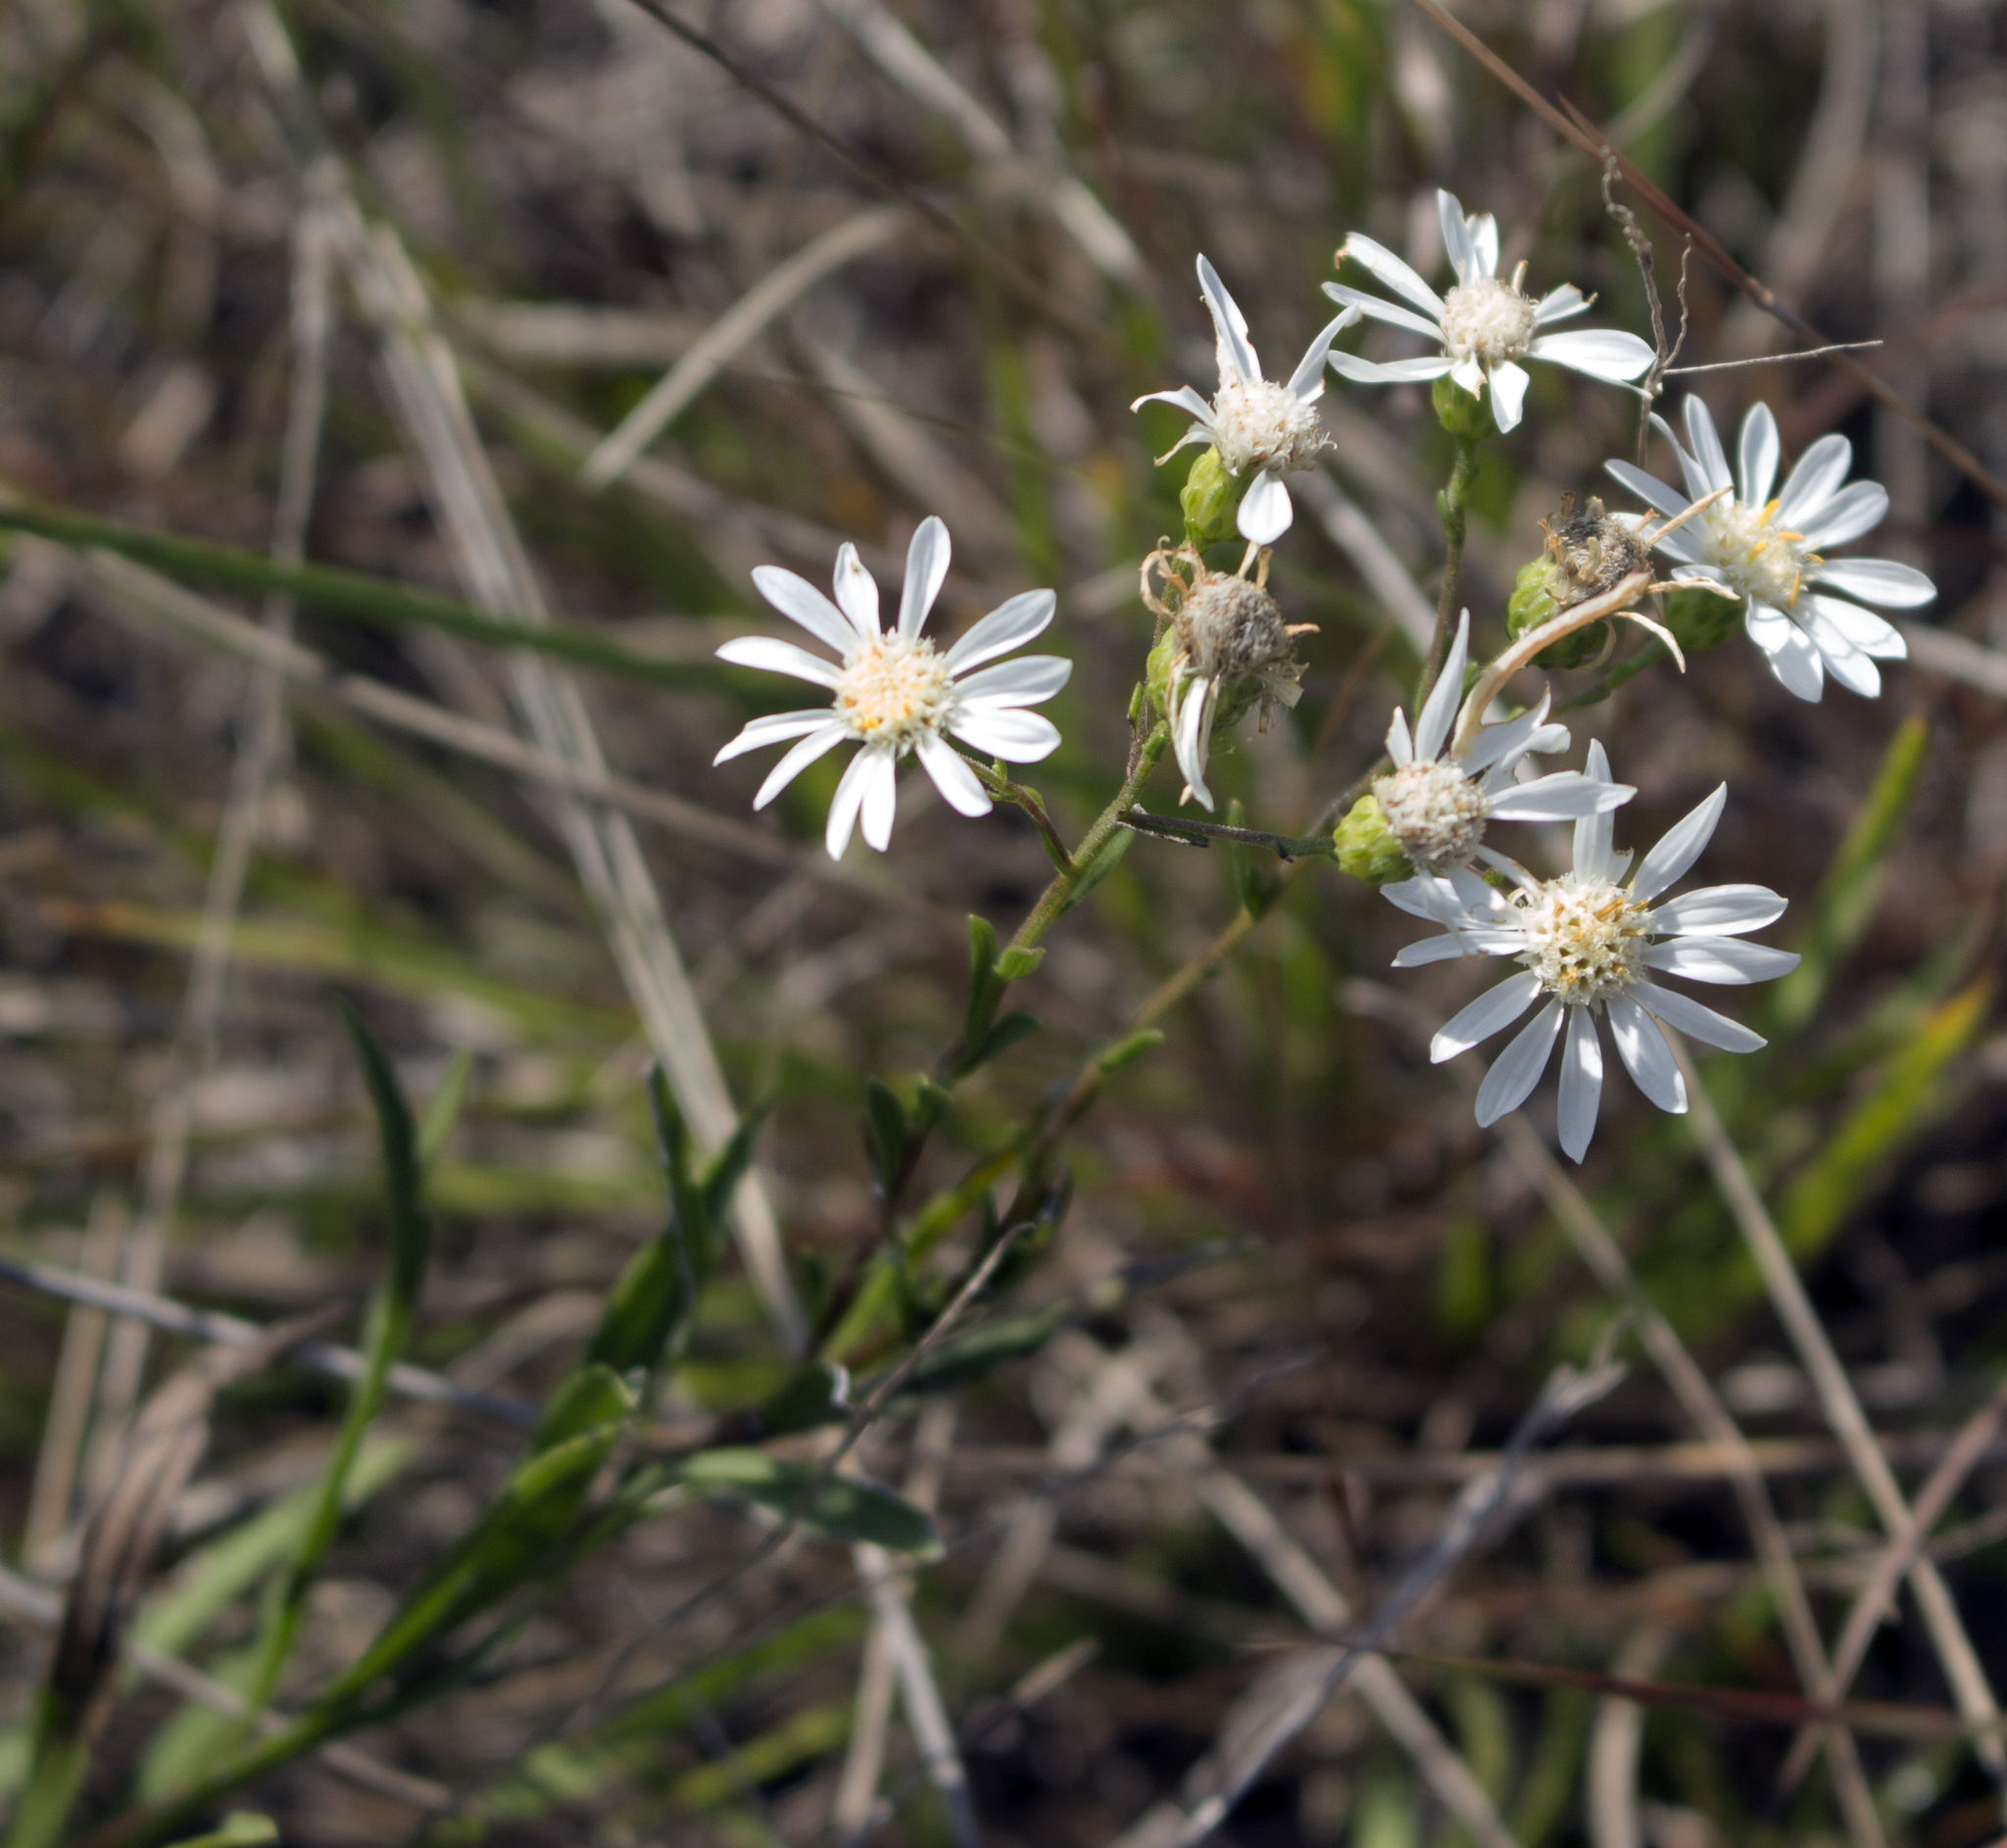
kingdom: Plantae
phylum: Tracheophyta
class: Magnoliopsida
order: Asterales
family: Asteraceae
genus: Solidago
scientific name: Solidago ptarmicoides
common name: White flat-top goldenrod
